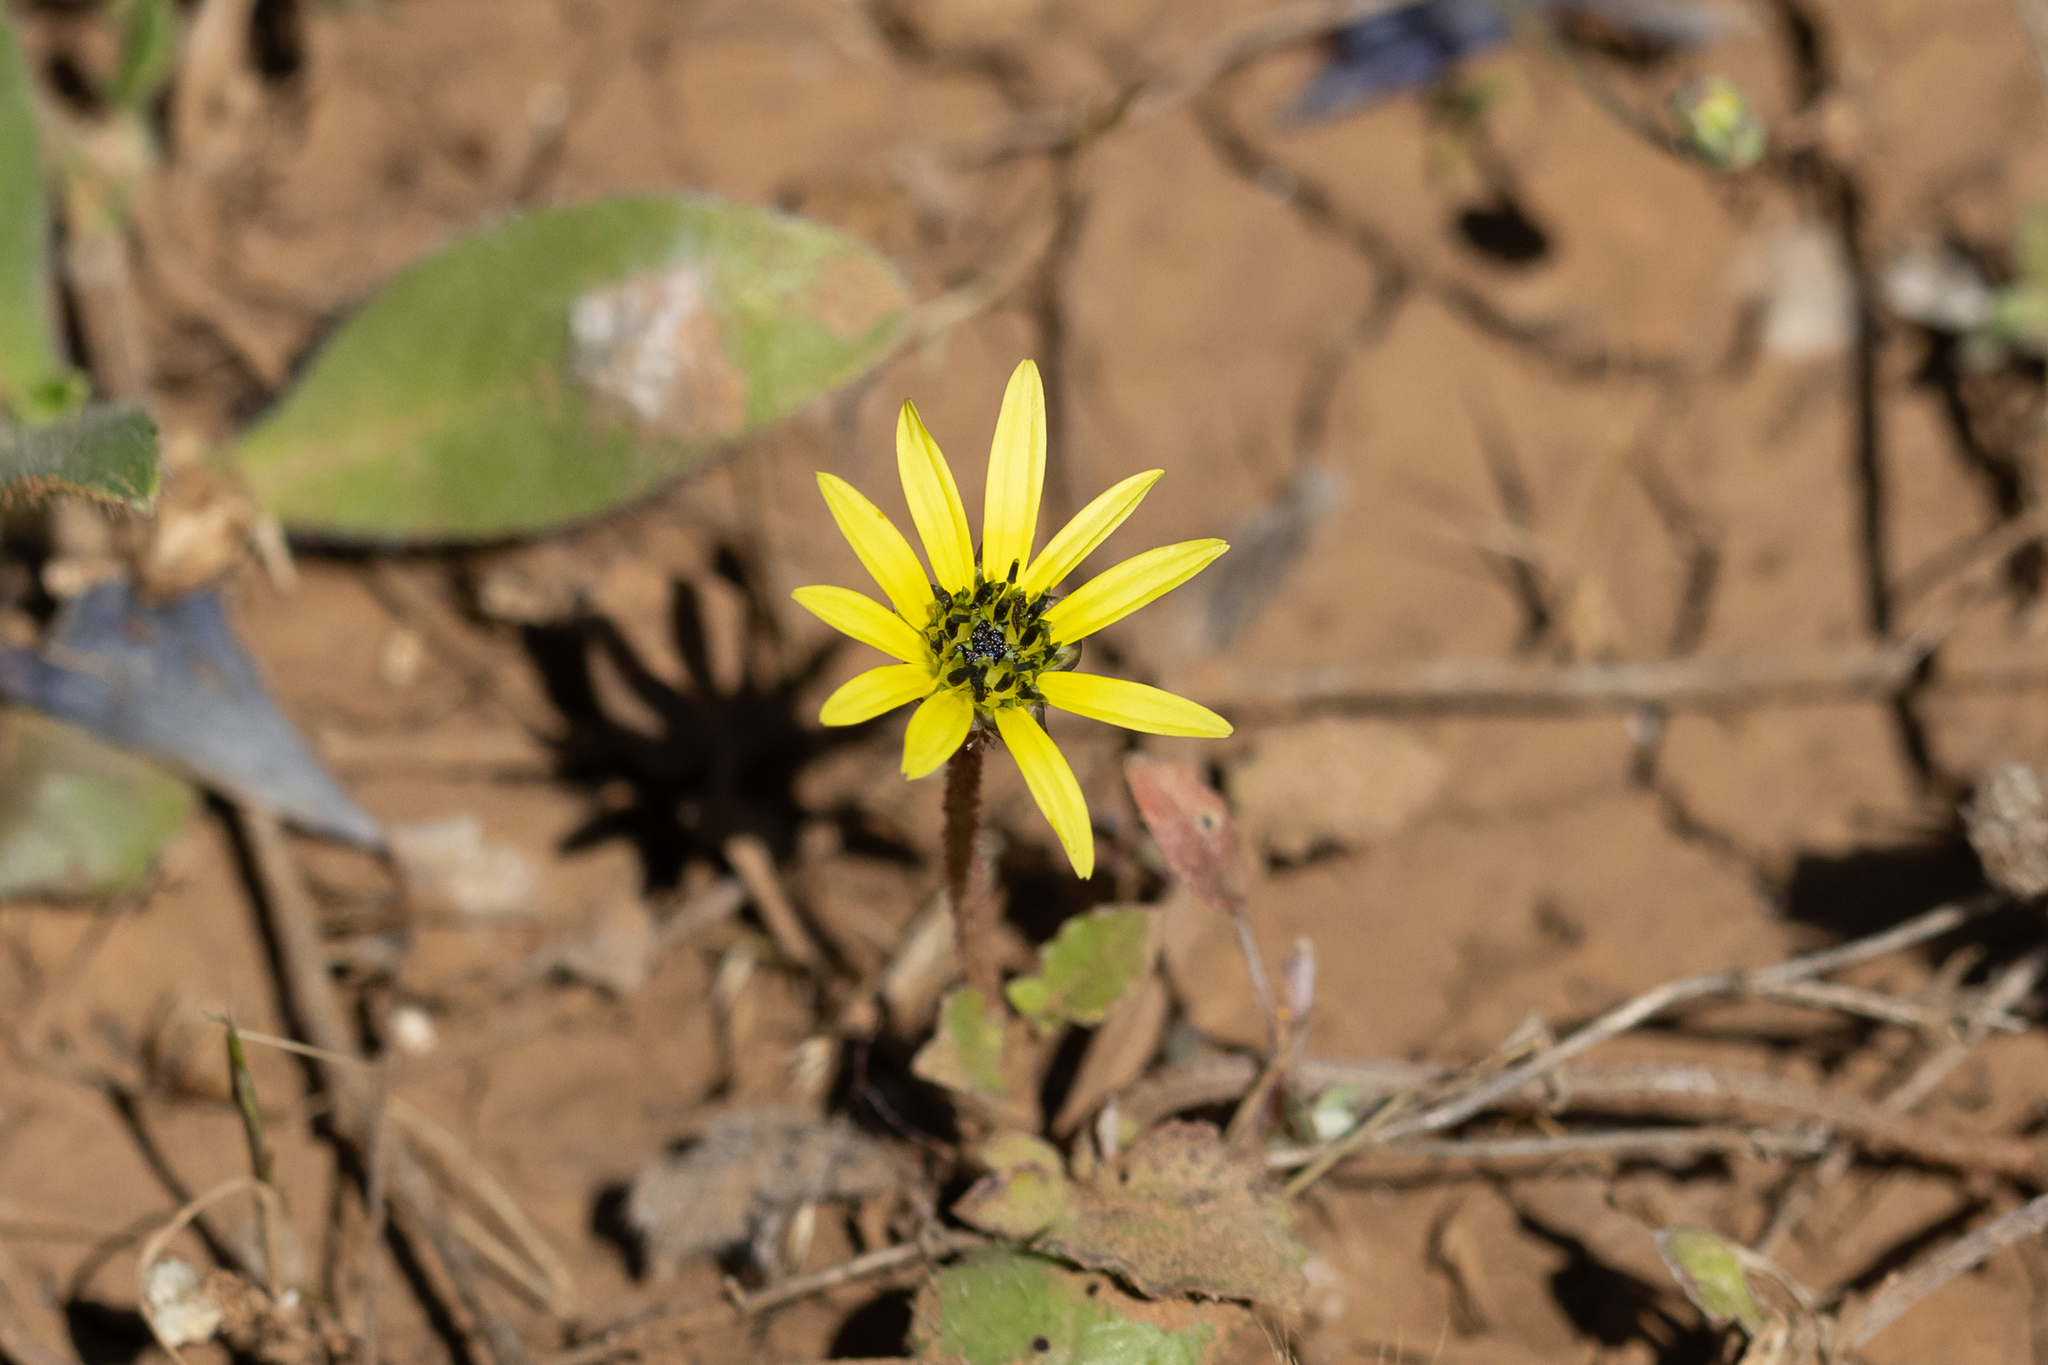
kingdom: Plantae
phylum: Tracheophyta
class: Magnoliopsida
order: Asterales
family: Asteraceae
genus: Arctotheca
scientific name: Arctotheca calendula
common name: Capeweed
